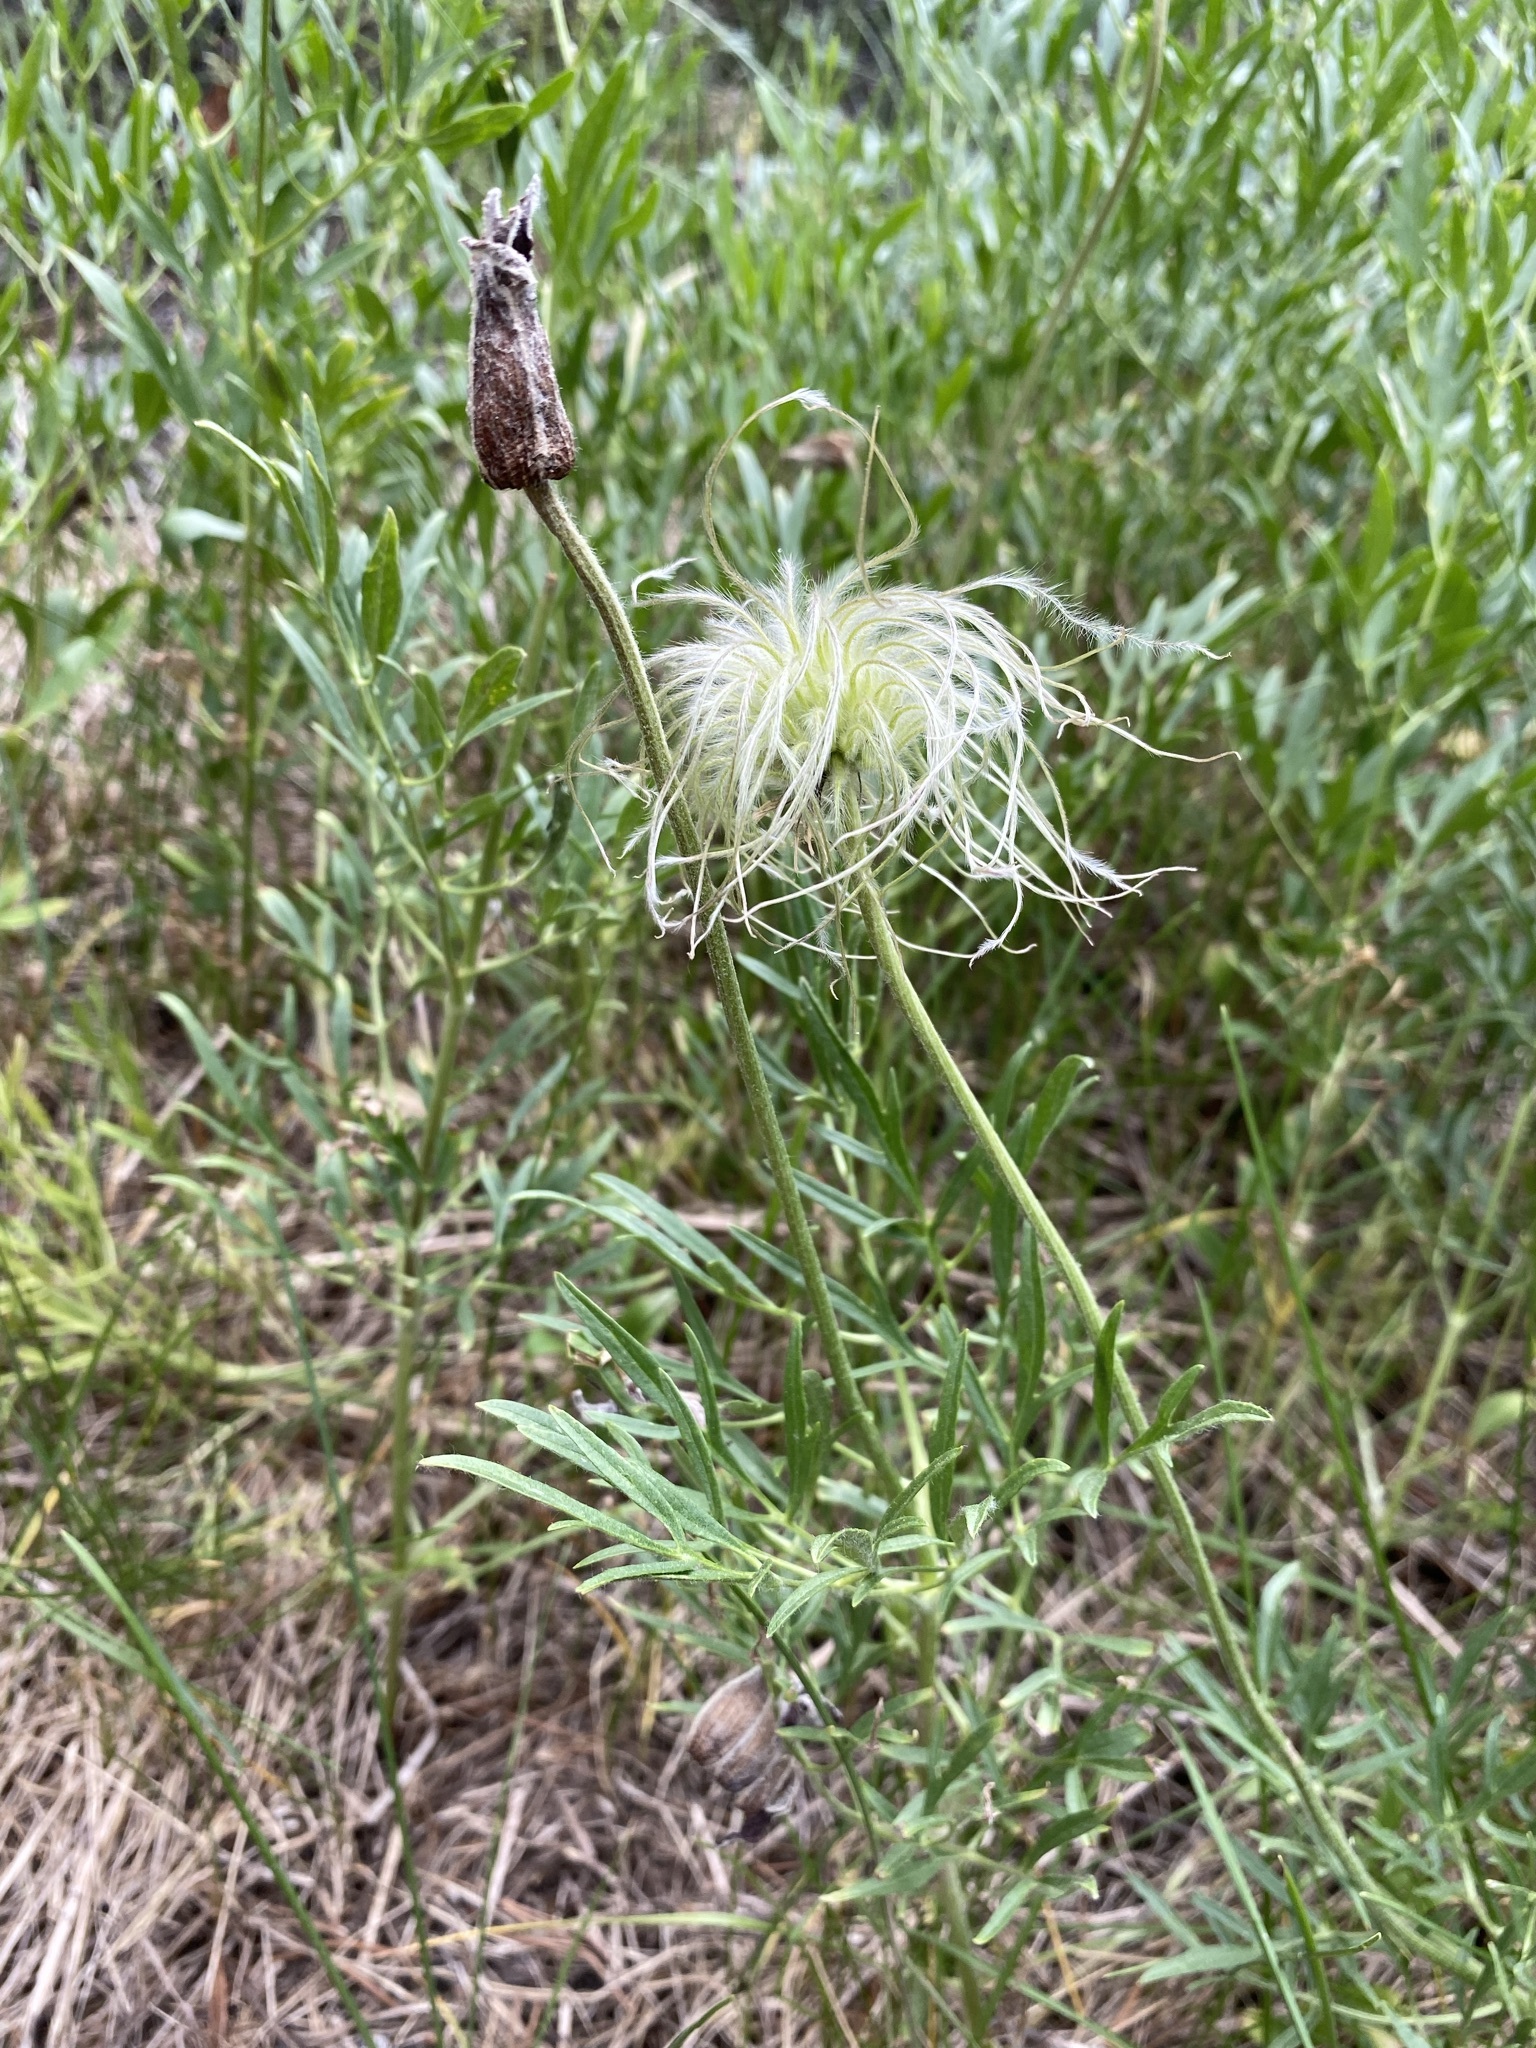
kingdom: Plantae
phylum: Tracheophyta
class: Magnoliopsida
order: Ranunculales
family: Ranunculaceae
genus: Clematis
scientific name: Clematis hirsutissima
